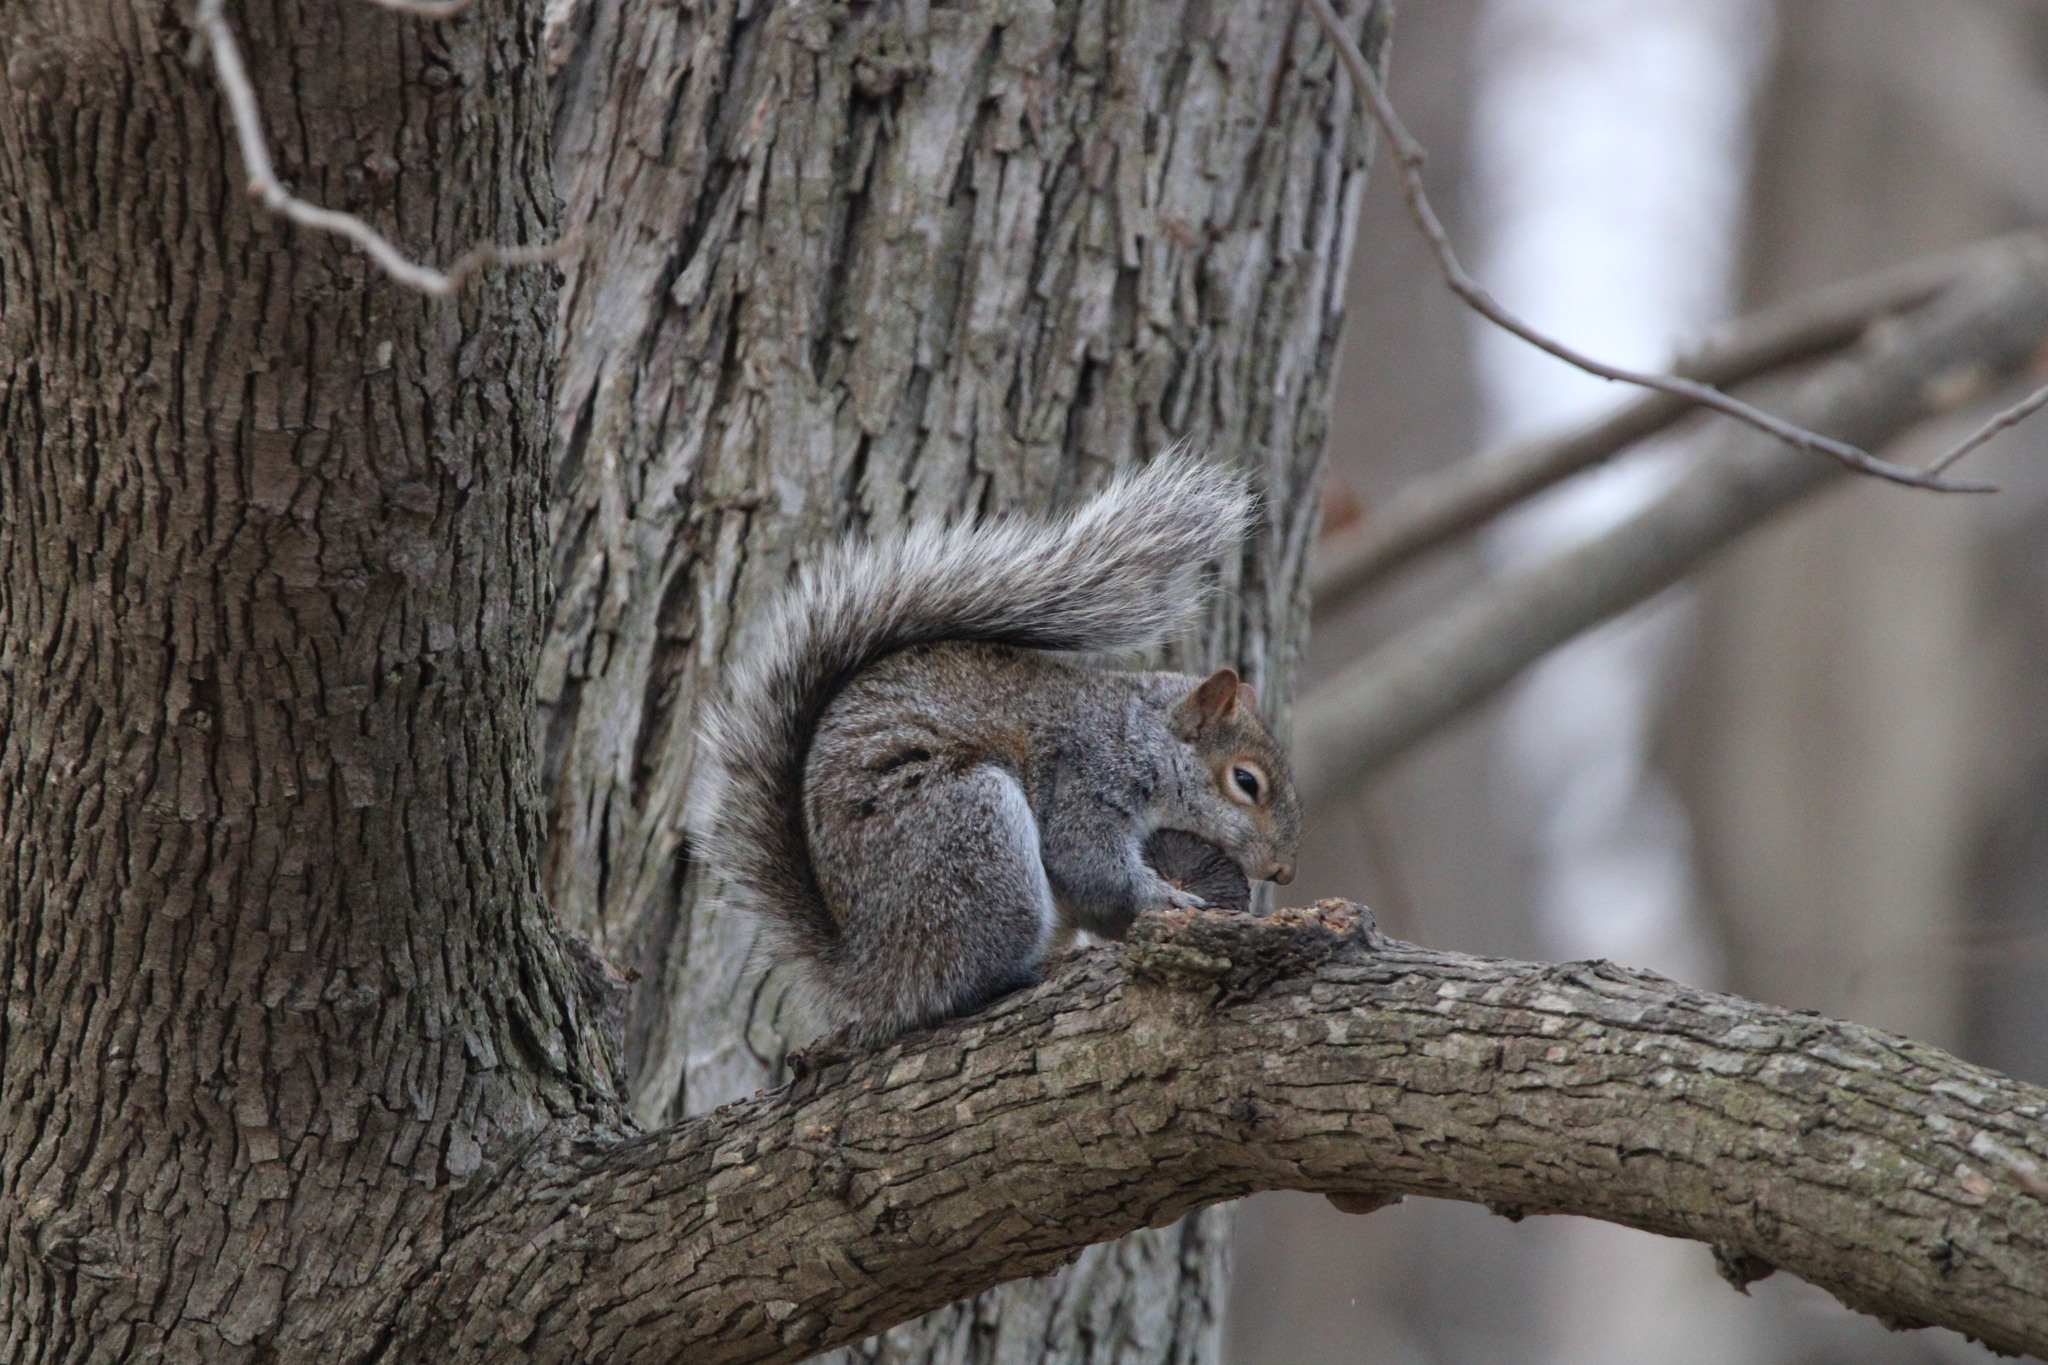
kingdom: Animalia
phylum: Chordata
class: Mammalia
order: Rodentia
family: Sciuridae
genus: Sciurus
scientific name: Sciurus carolinensis
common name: Eastern gray squirrel
